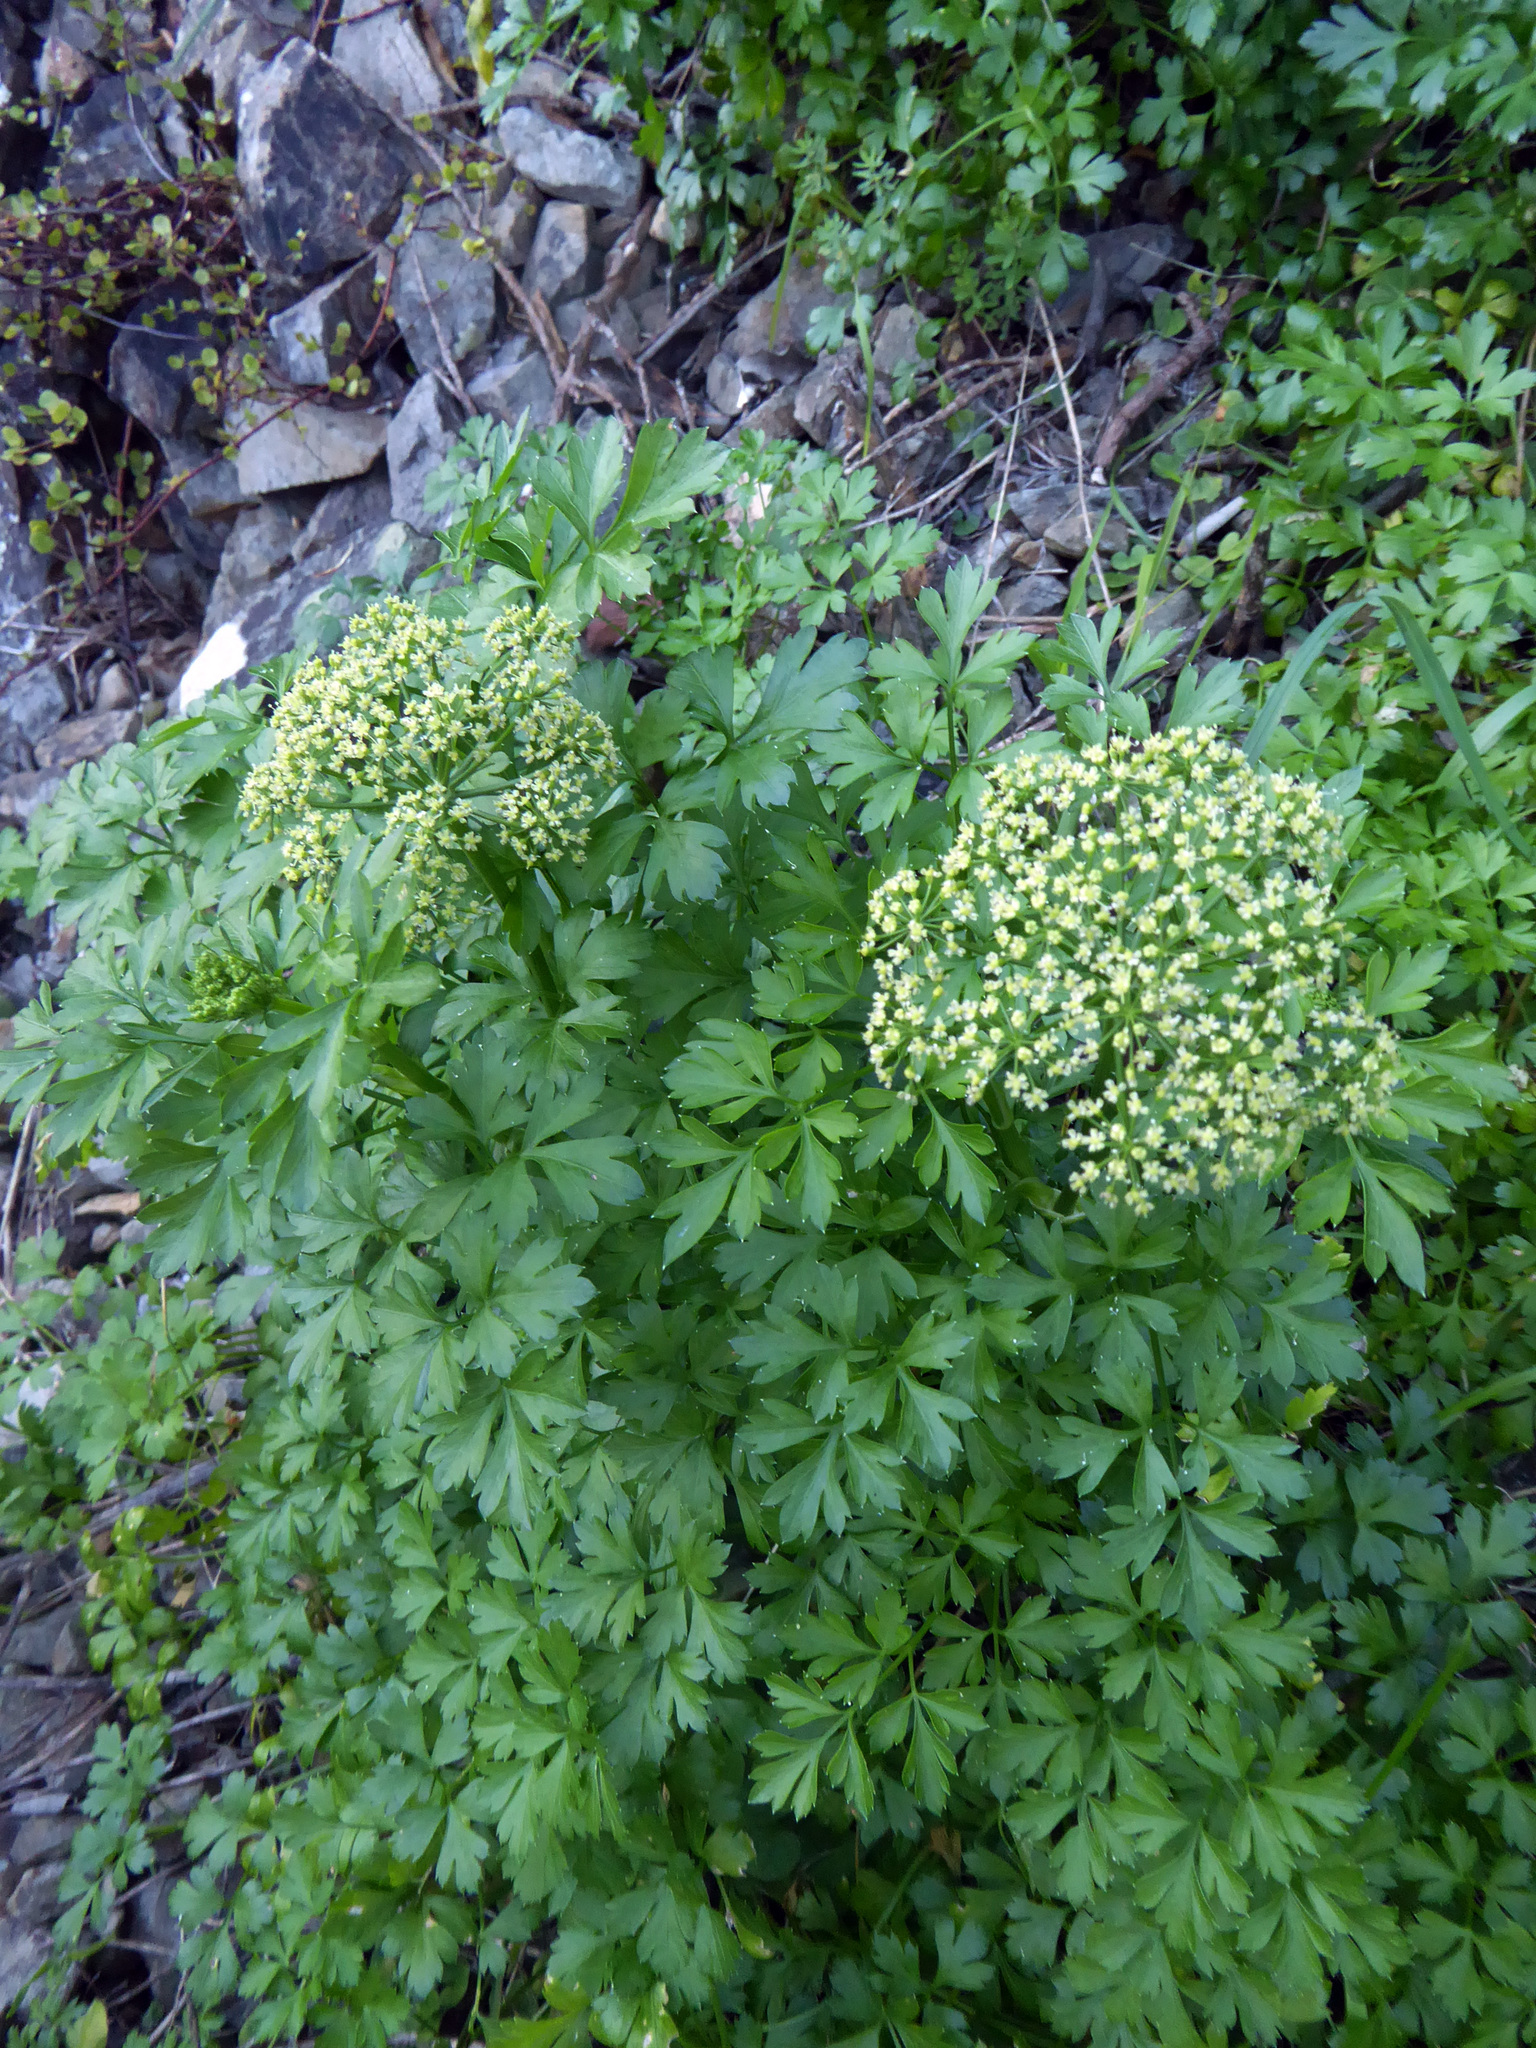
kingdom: Plantae
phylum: Tracheophyta
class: Magnoliopsida
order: Apiales
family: Apiaceae
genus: Petroselinum
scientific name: Petroselinum crispum
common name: Parsley
